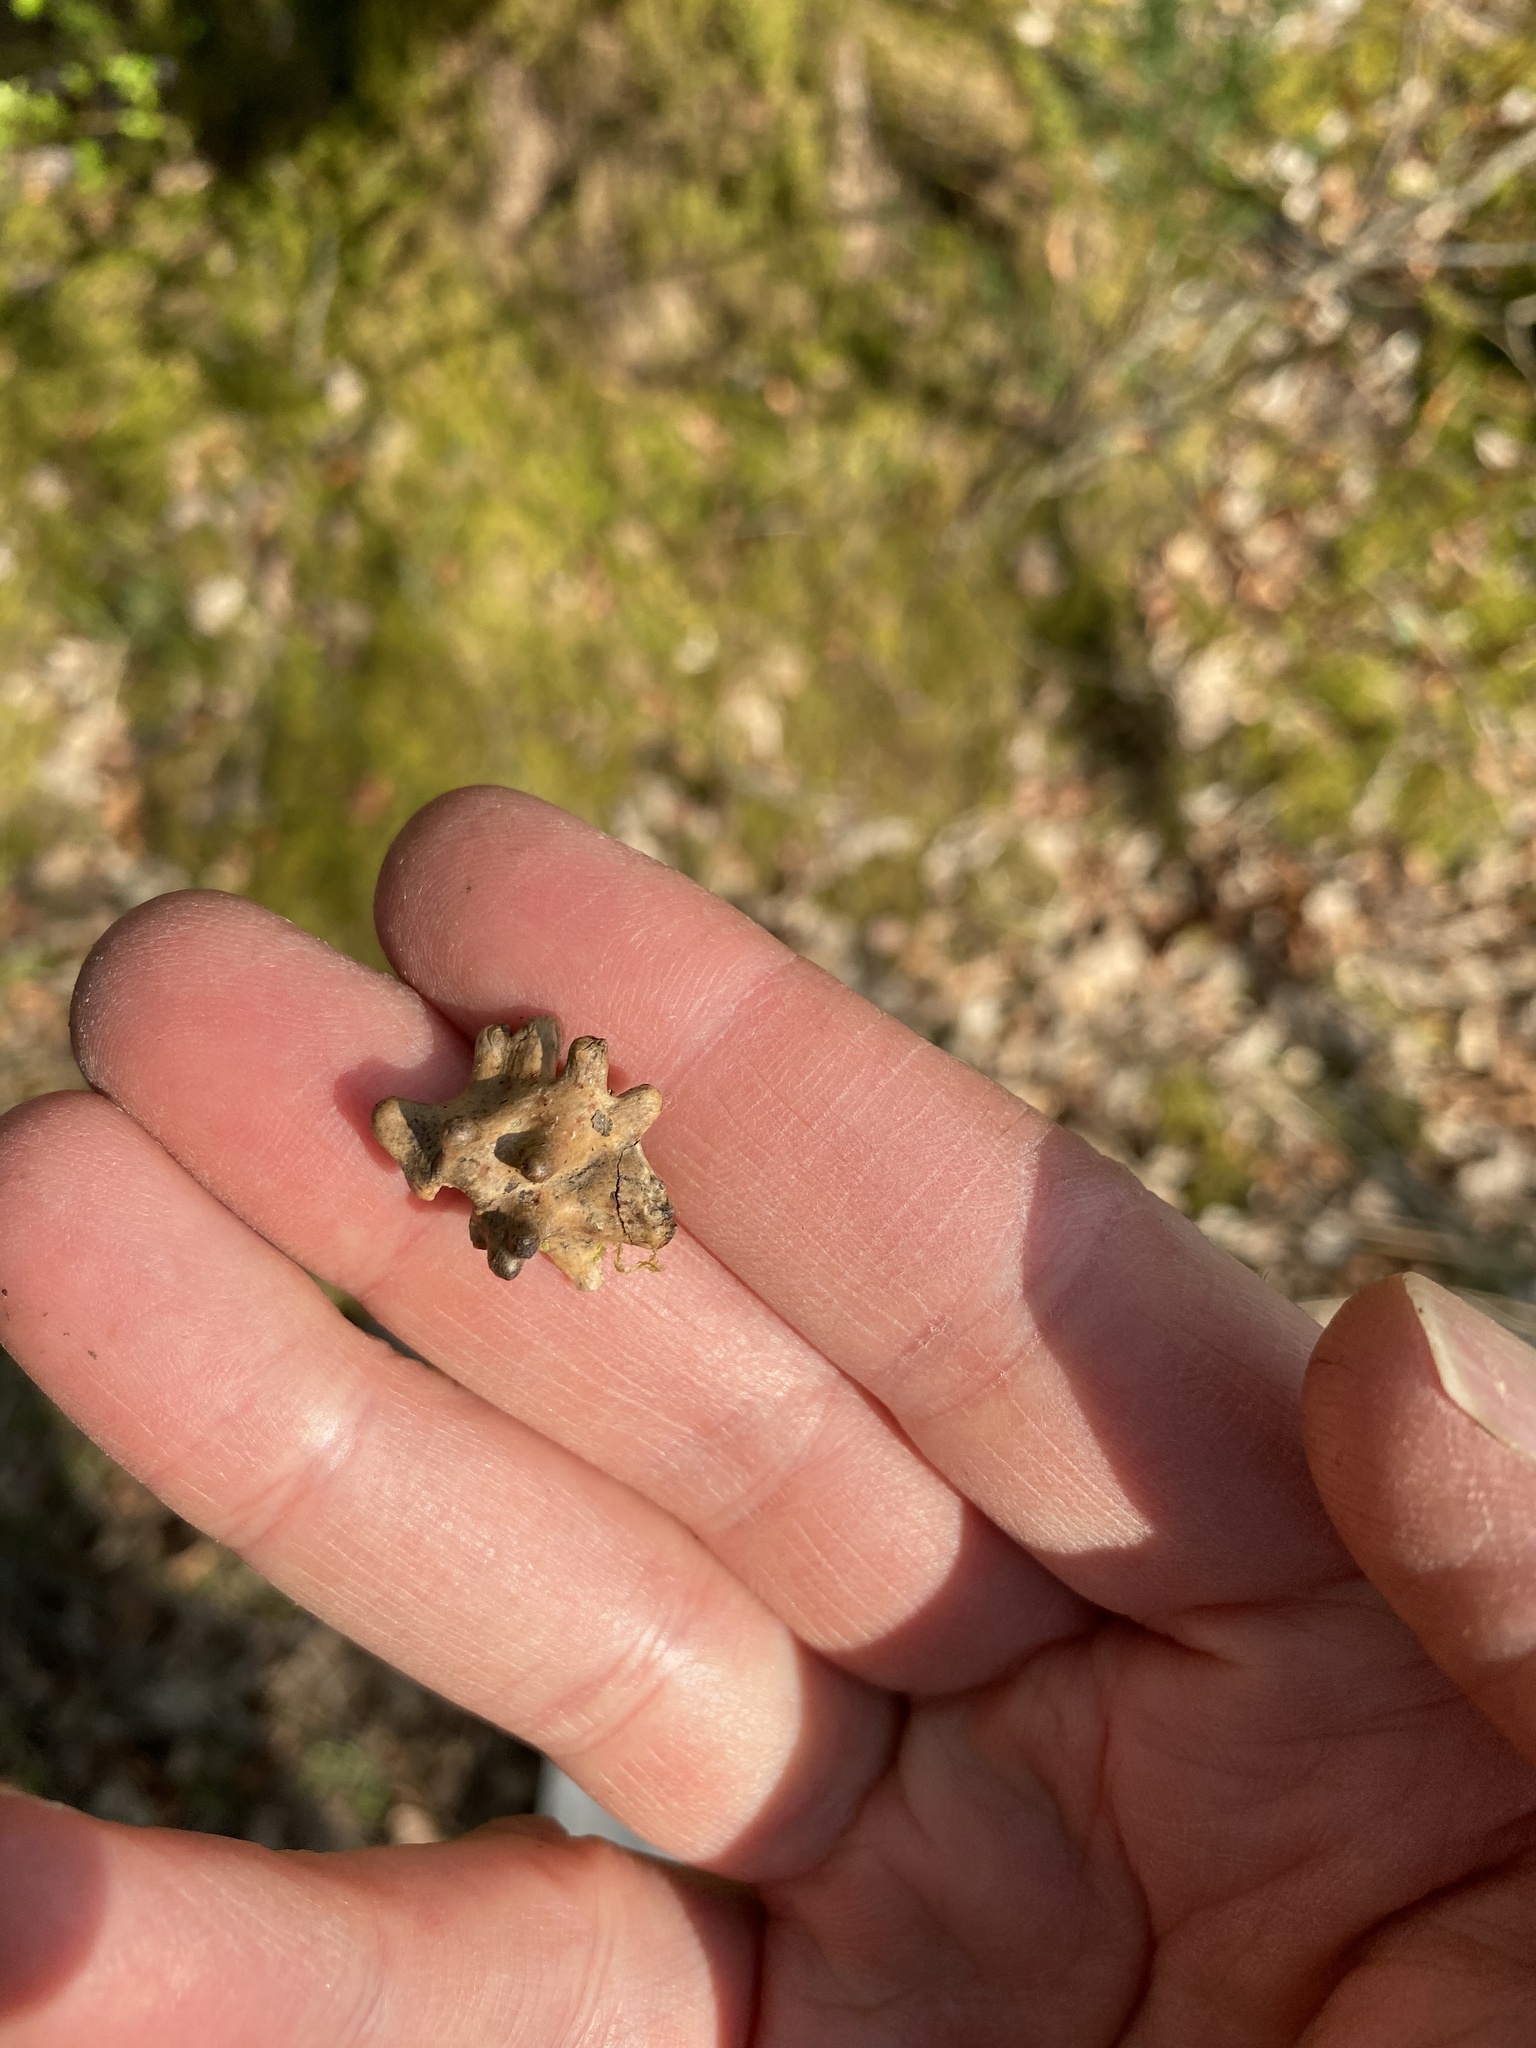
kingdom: Animalia
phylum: Arthropoda
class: Insecta
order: Hymenoptera
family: Cynipidae
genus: Andricus
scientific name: Andricus quercuscalicis
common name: Knopper gall
